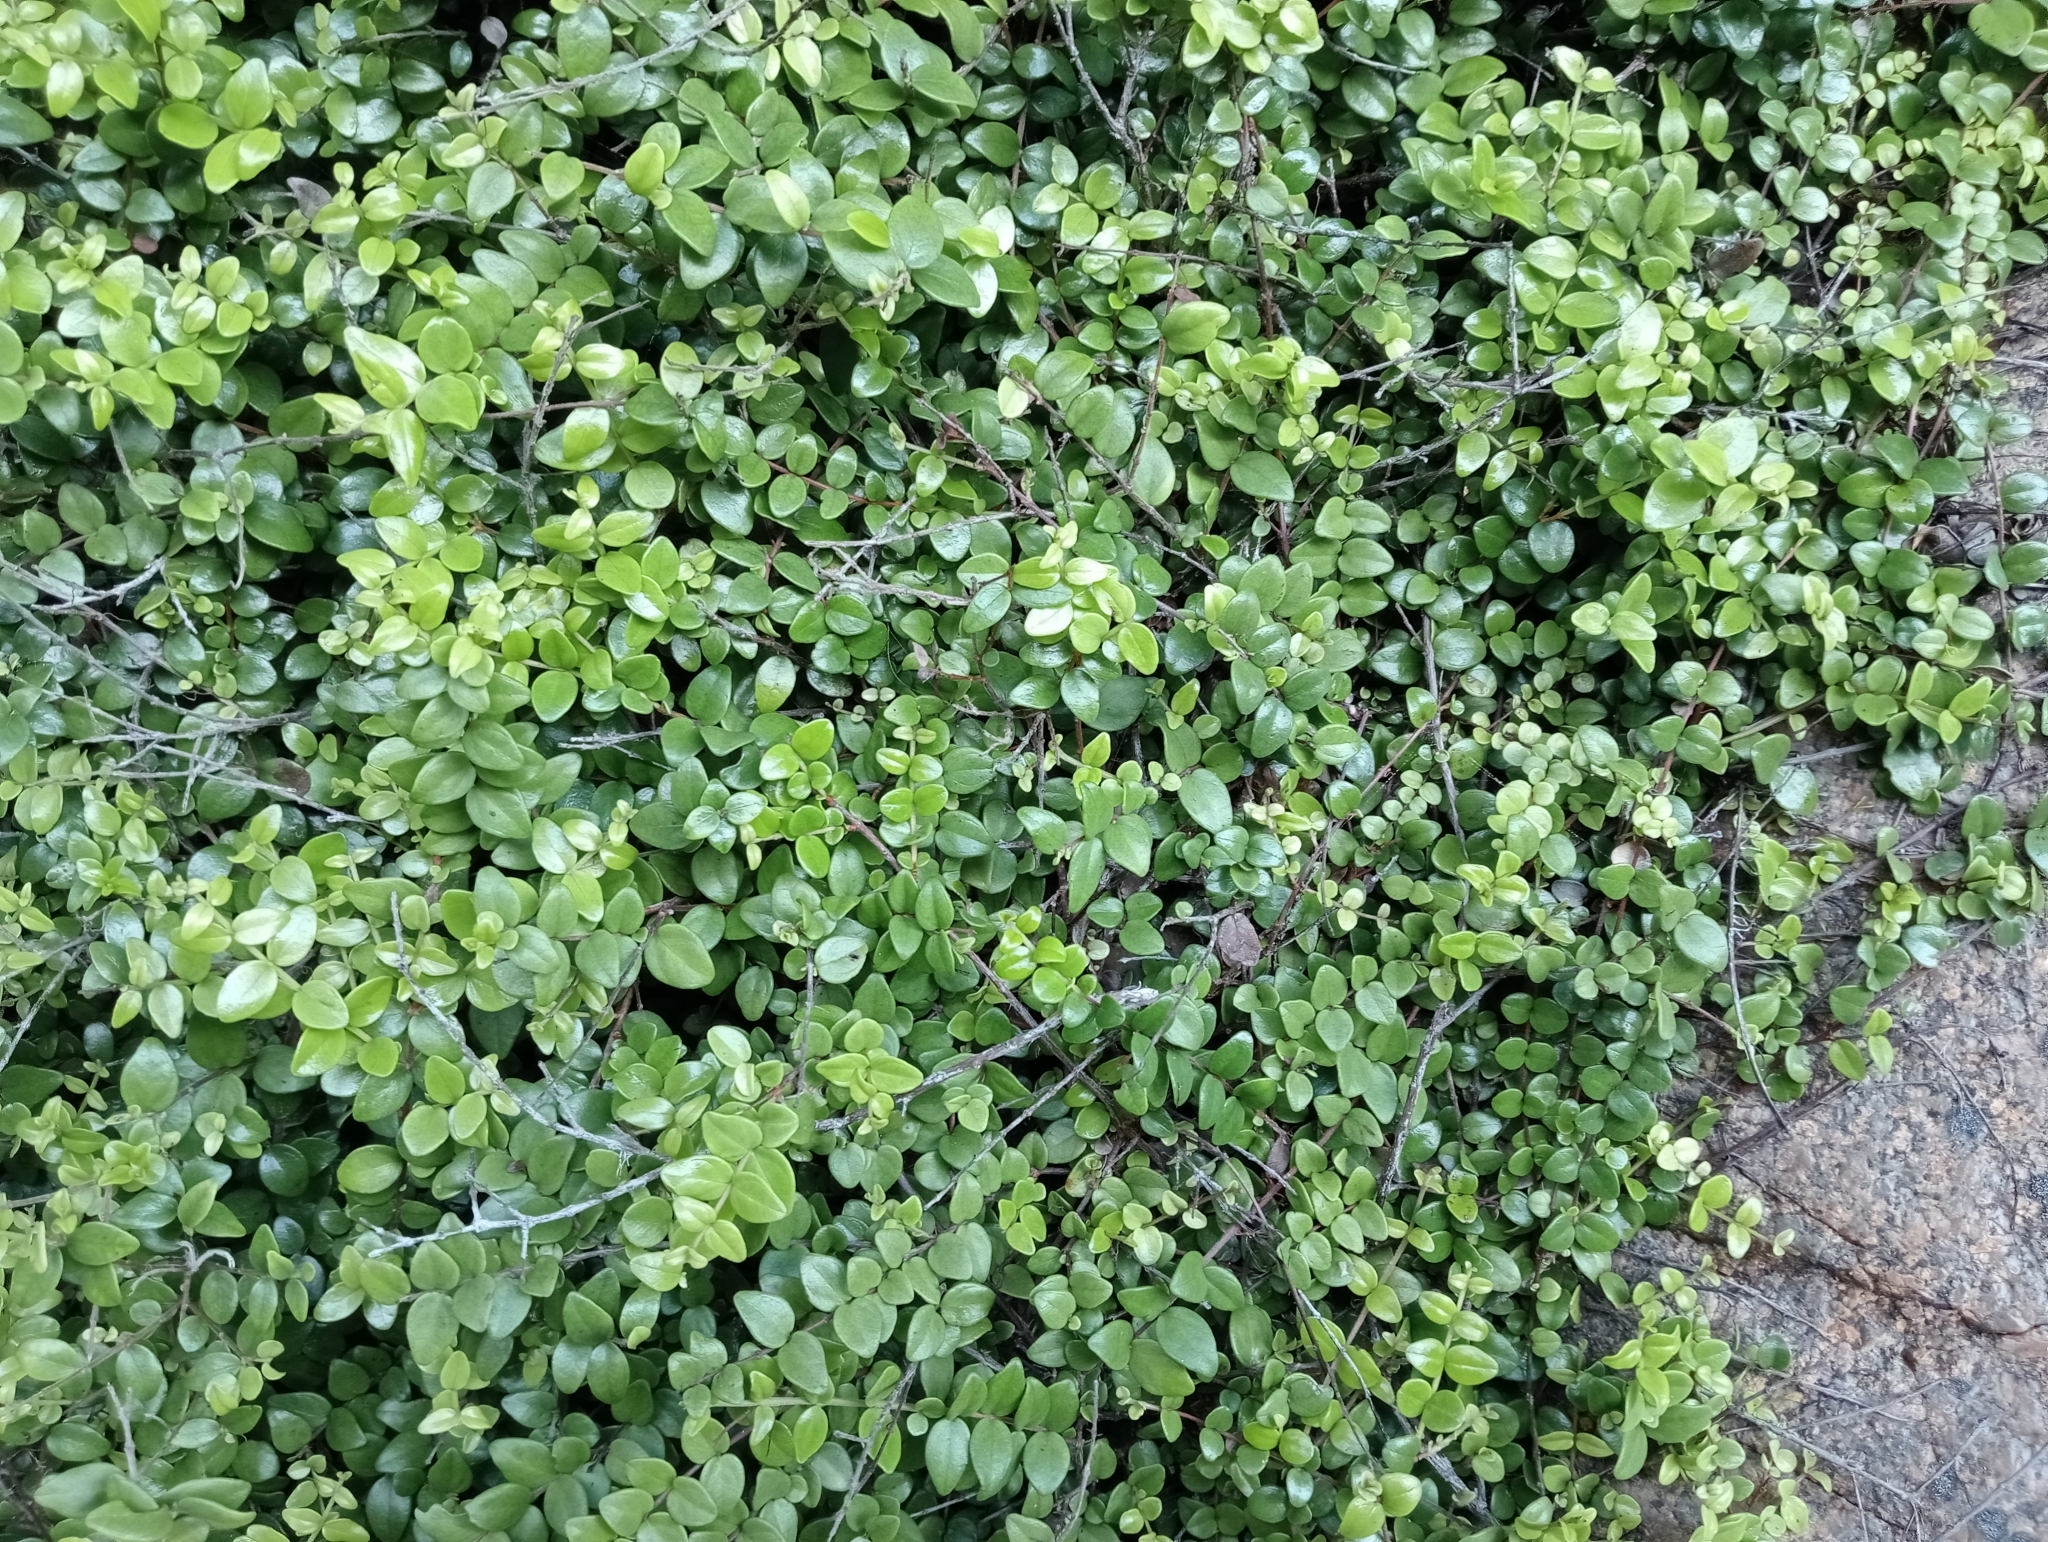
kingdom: Plantae
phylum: Tracheophyta
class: Magnoliopsida
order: Myrtales
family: Myrtaceae
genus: Metrosideros
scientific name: Metrosideros perforata
